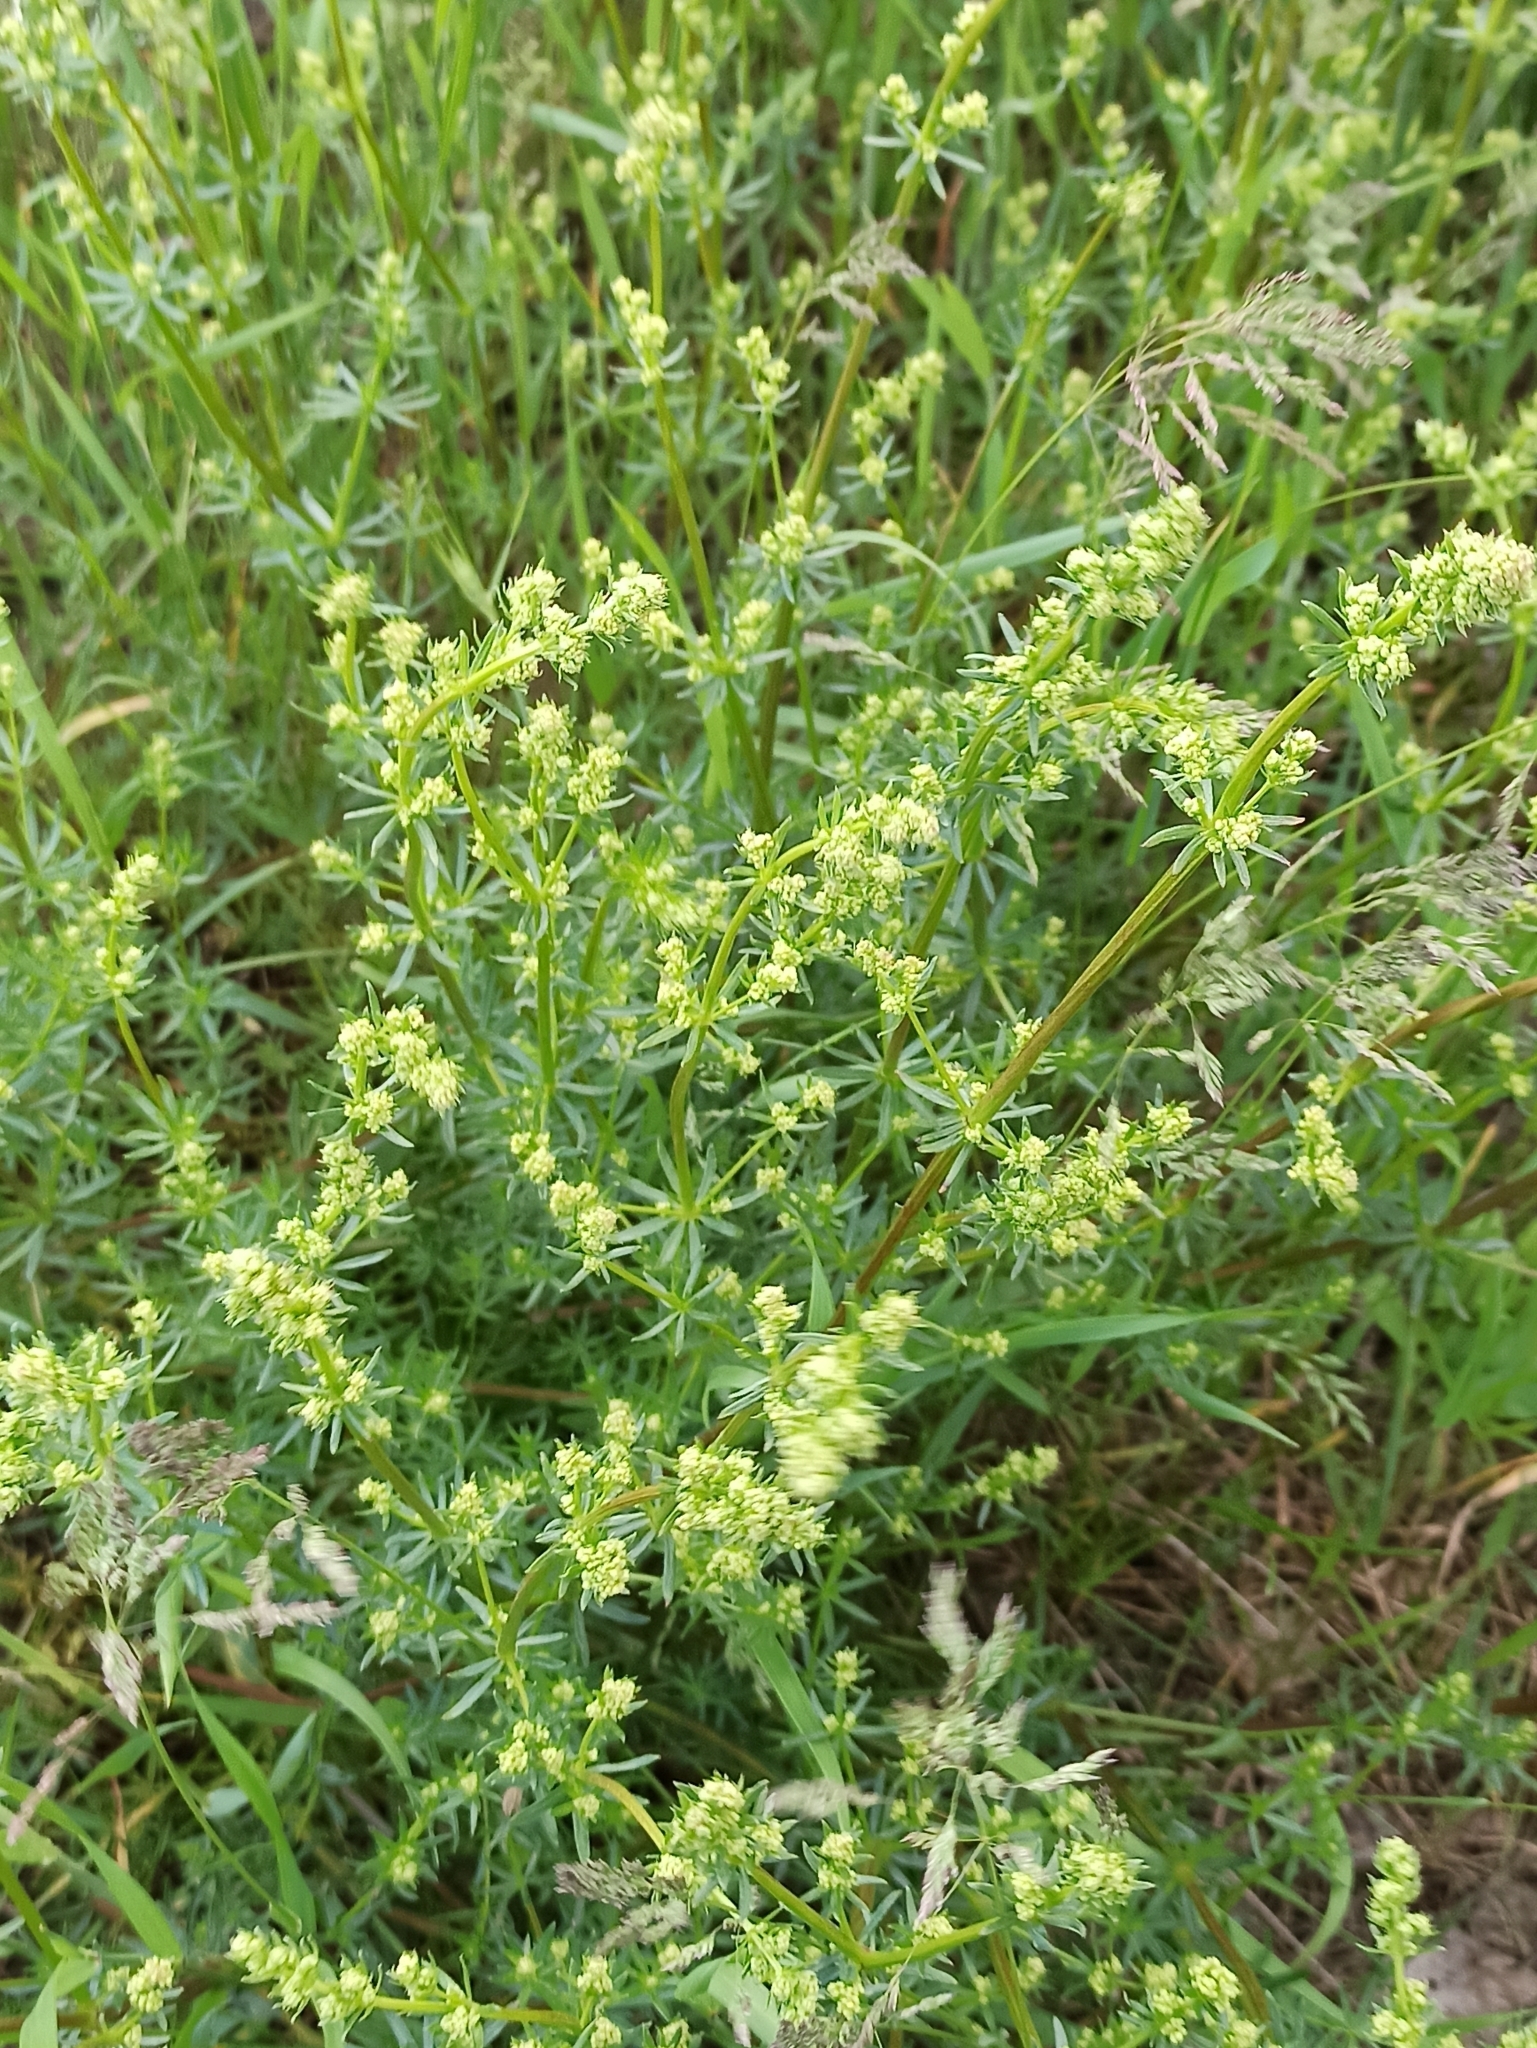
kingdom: Plantae
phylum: Tracheophyta
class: Magnoliopsida
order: Gentianales
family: Rubiaceae
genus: Galium
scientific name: Galium mollugo
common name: Hedge bedstraw
